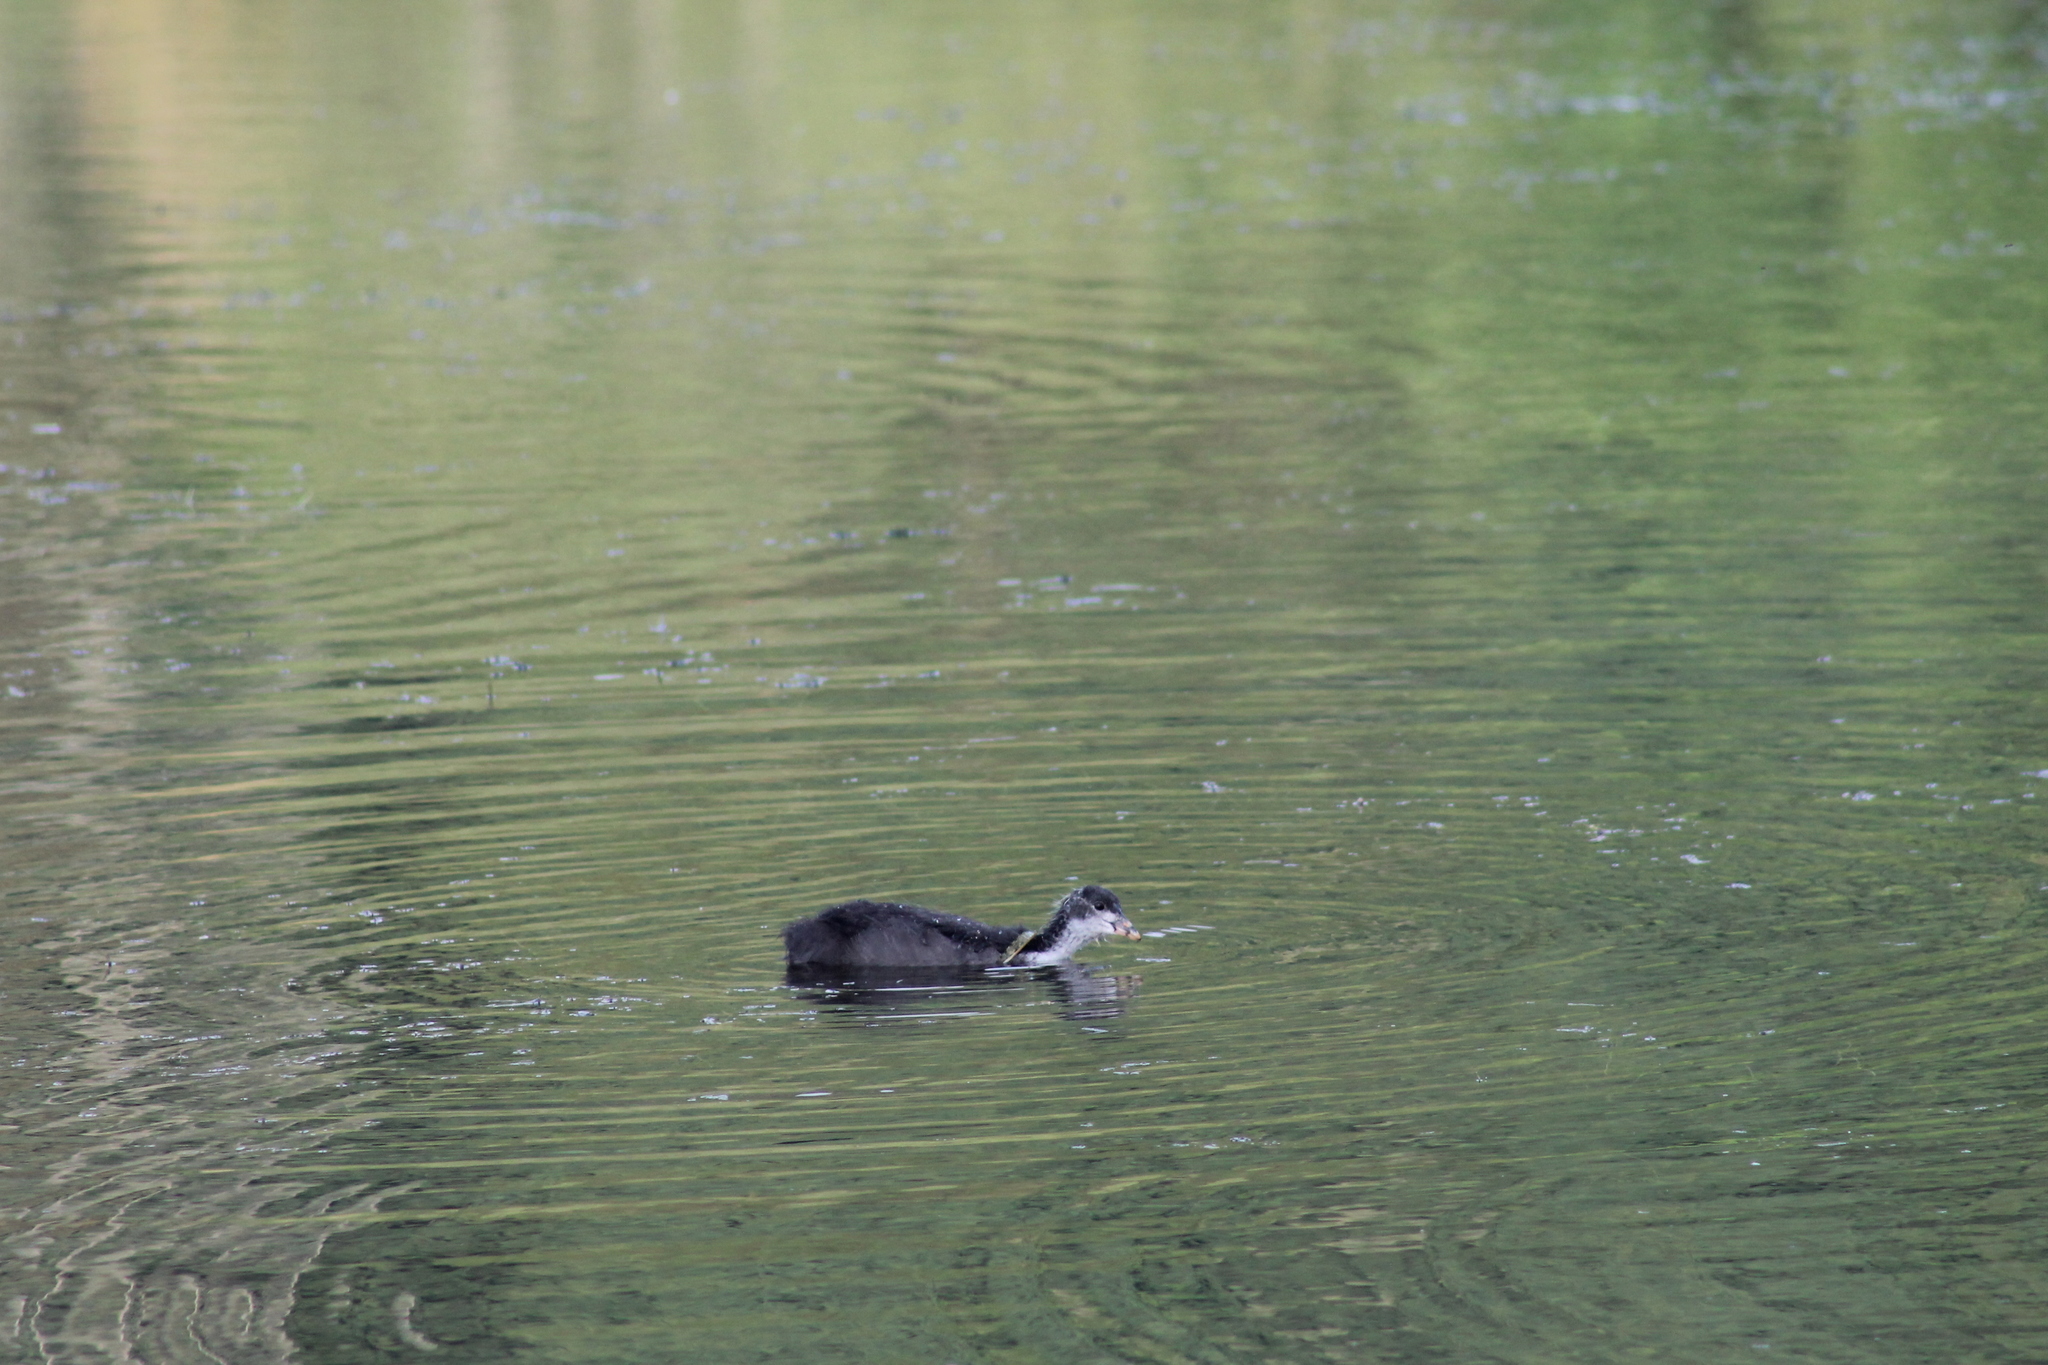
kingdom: Animalia
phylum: Chordata
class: Aves
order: Gruiformes
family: Rallidae
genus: Fulica
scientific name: Fulica atra
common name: Eurasian coot
